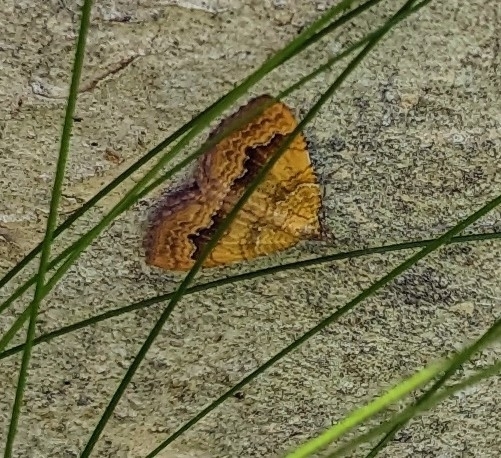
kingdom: Animalia
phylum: Arthropoda
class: Insecta
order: Lepidoptera
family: Geometridae
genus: Camptogramma
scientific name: Camptogramma bilineata
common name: Yellow shell
